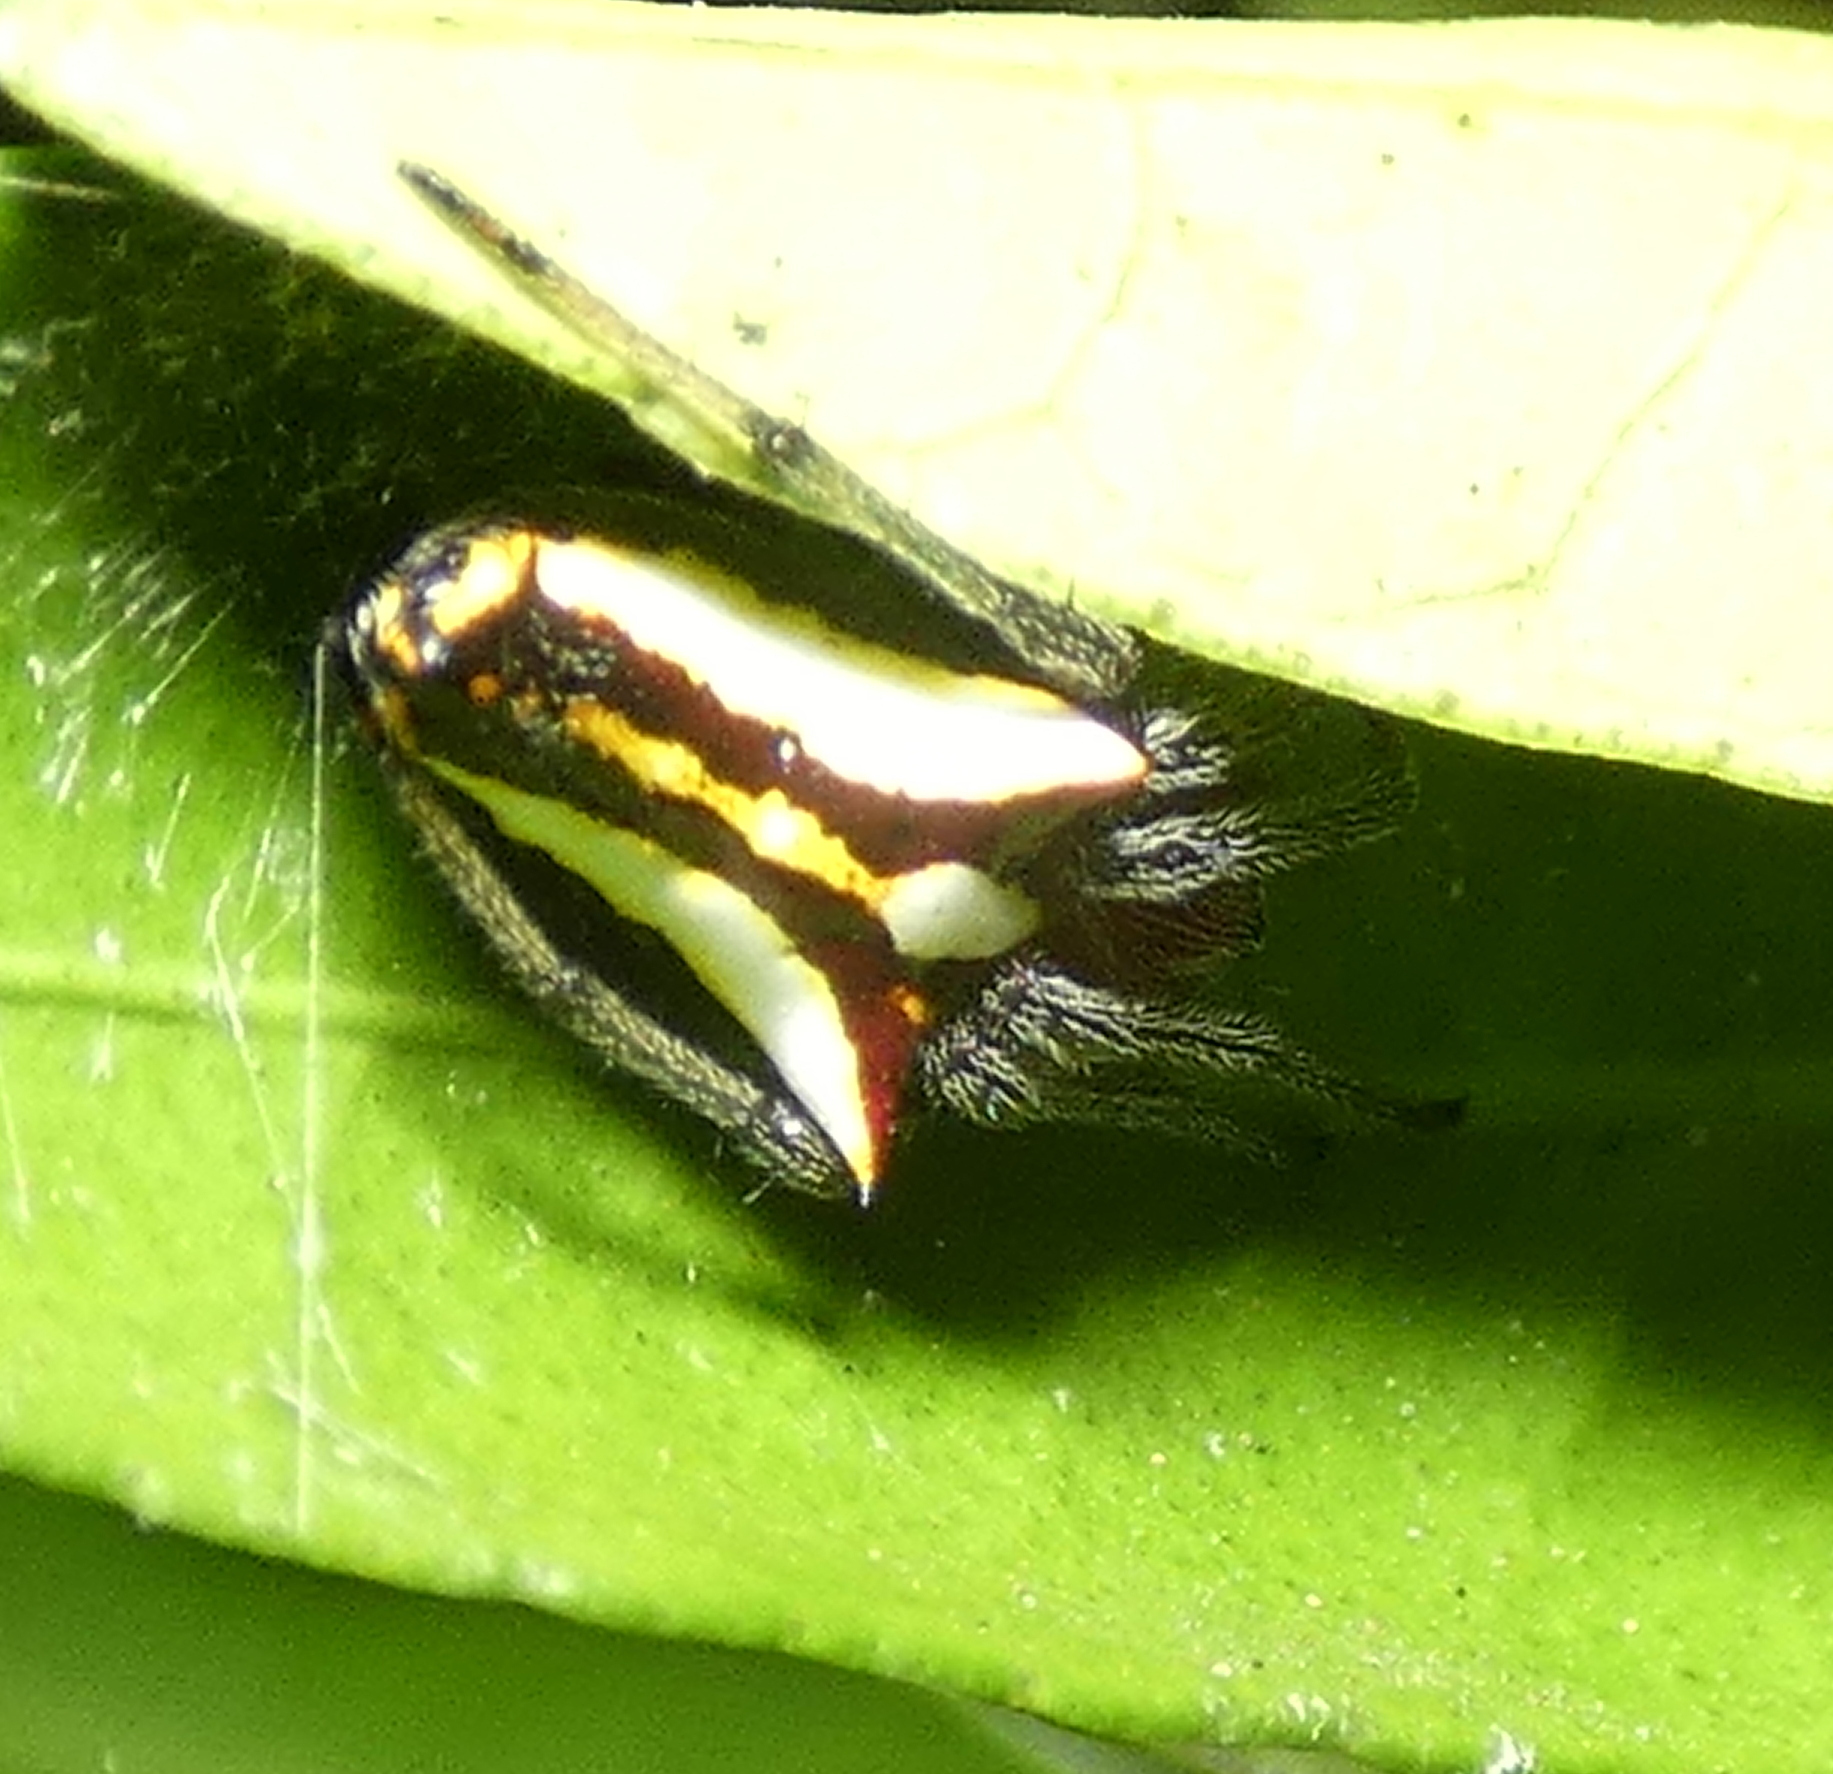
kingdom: Animalia
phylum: Arthropoda
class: Arachnida
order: Araneae
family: Araneidae
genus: Alpaida
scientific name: Alpaida bicornuta
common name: Orb weavers
